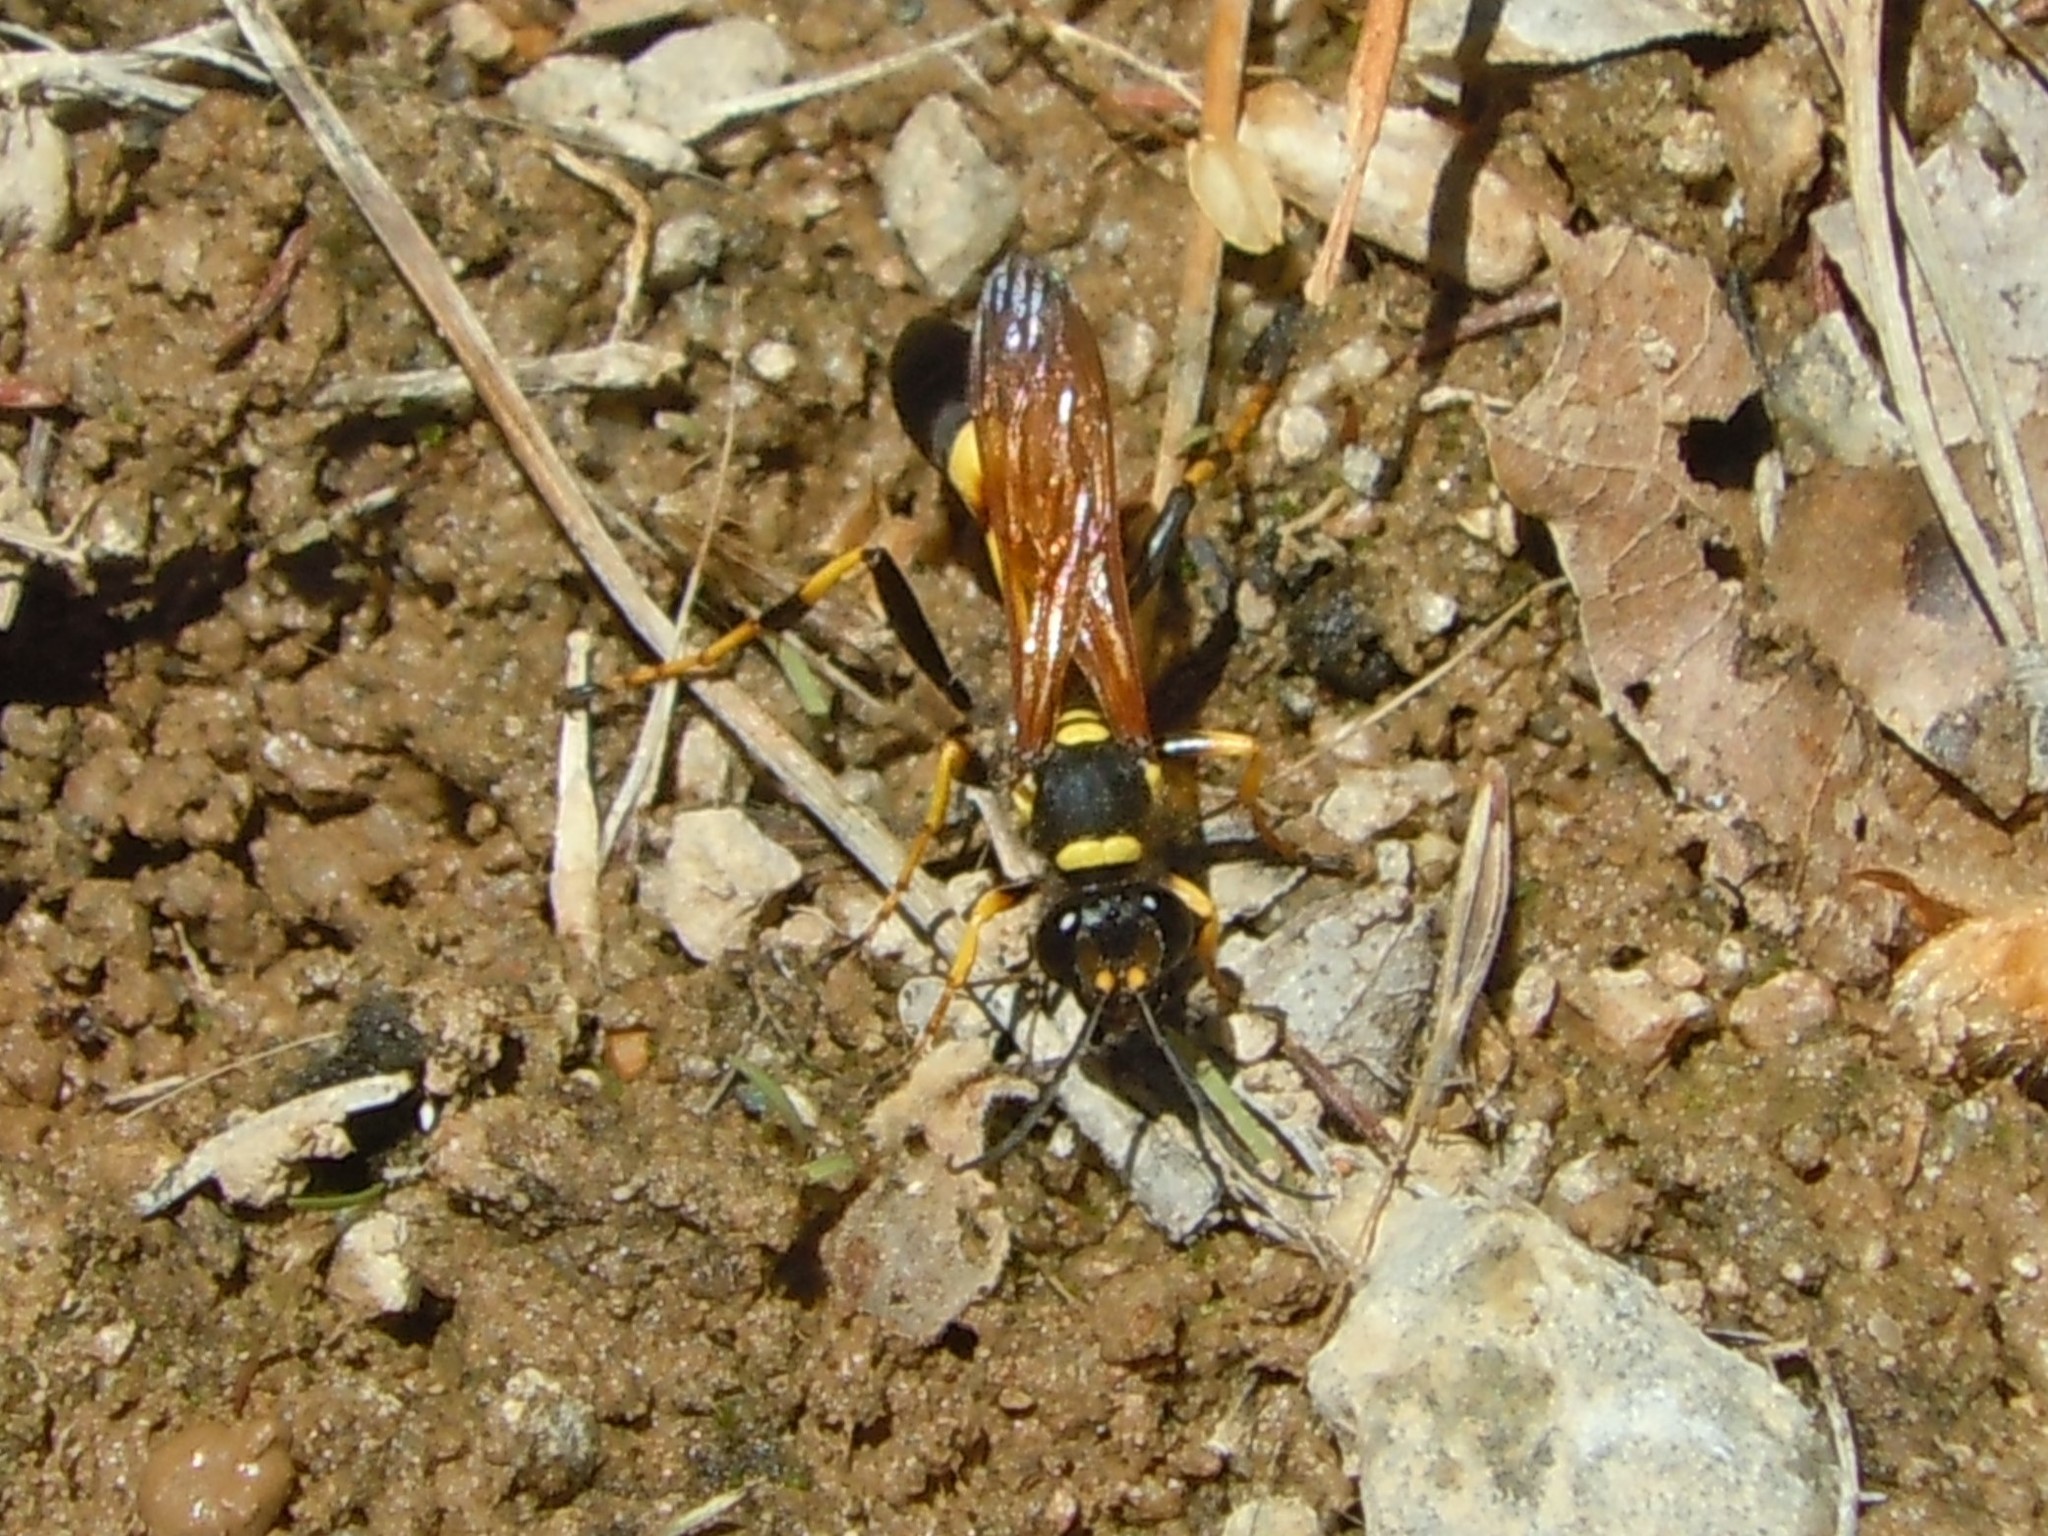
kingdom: Animalia
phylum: Arthropoda
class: Insecta
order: Hymenoptera
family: Sphecidae
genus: Sceliphron
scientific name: Sceliphron caementarium
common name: Mud dauber
